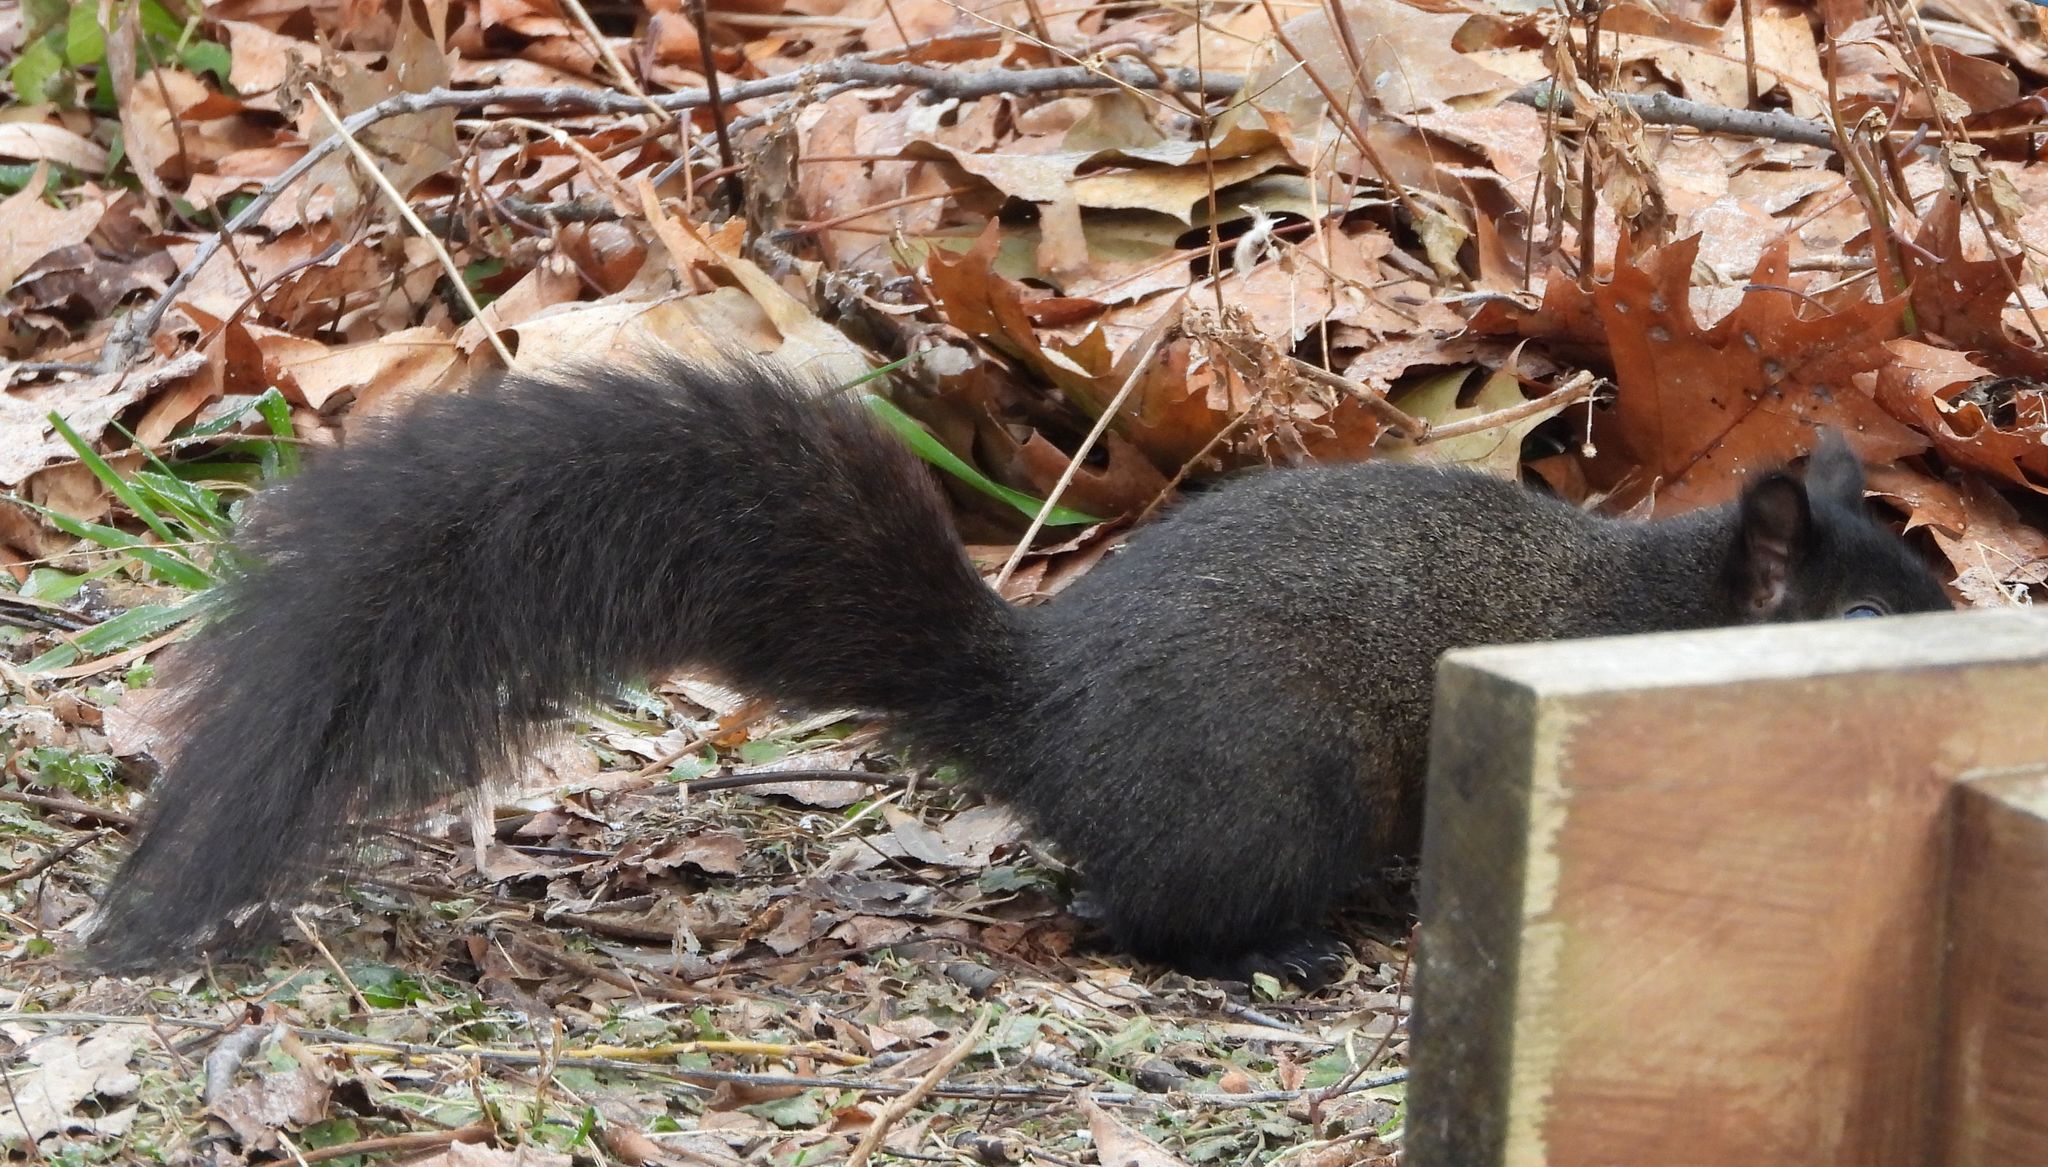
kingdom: Animalia
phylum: Chordata
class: Mammalia
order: Rodentia
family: Sciuridae
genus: Sciurus
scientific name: Sciurus carolinensis
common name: Eastern gray squirrel
